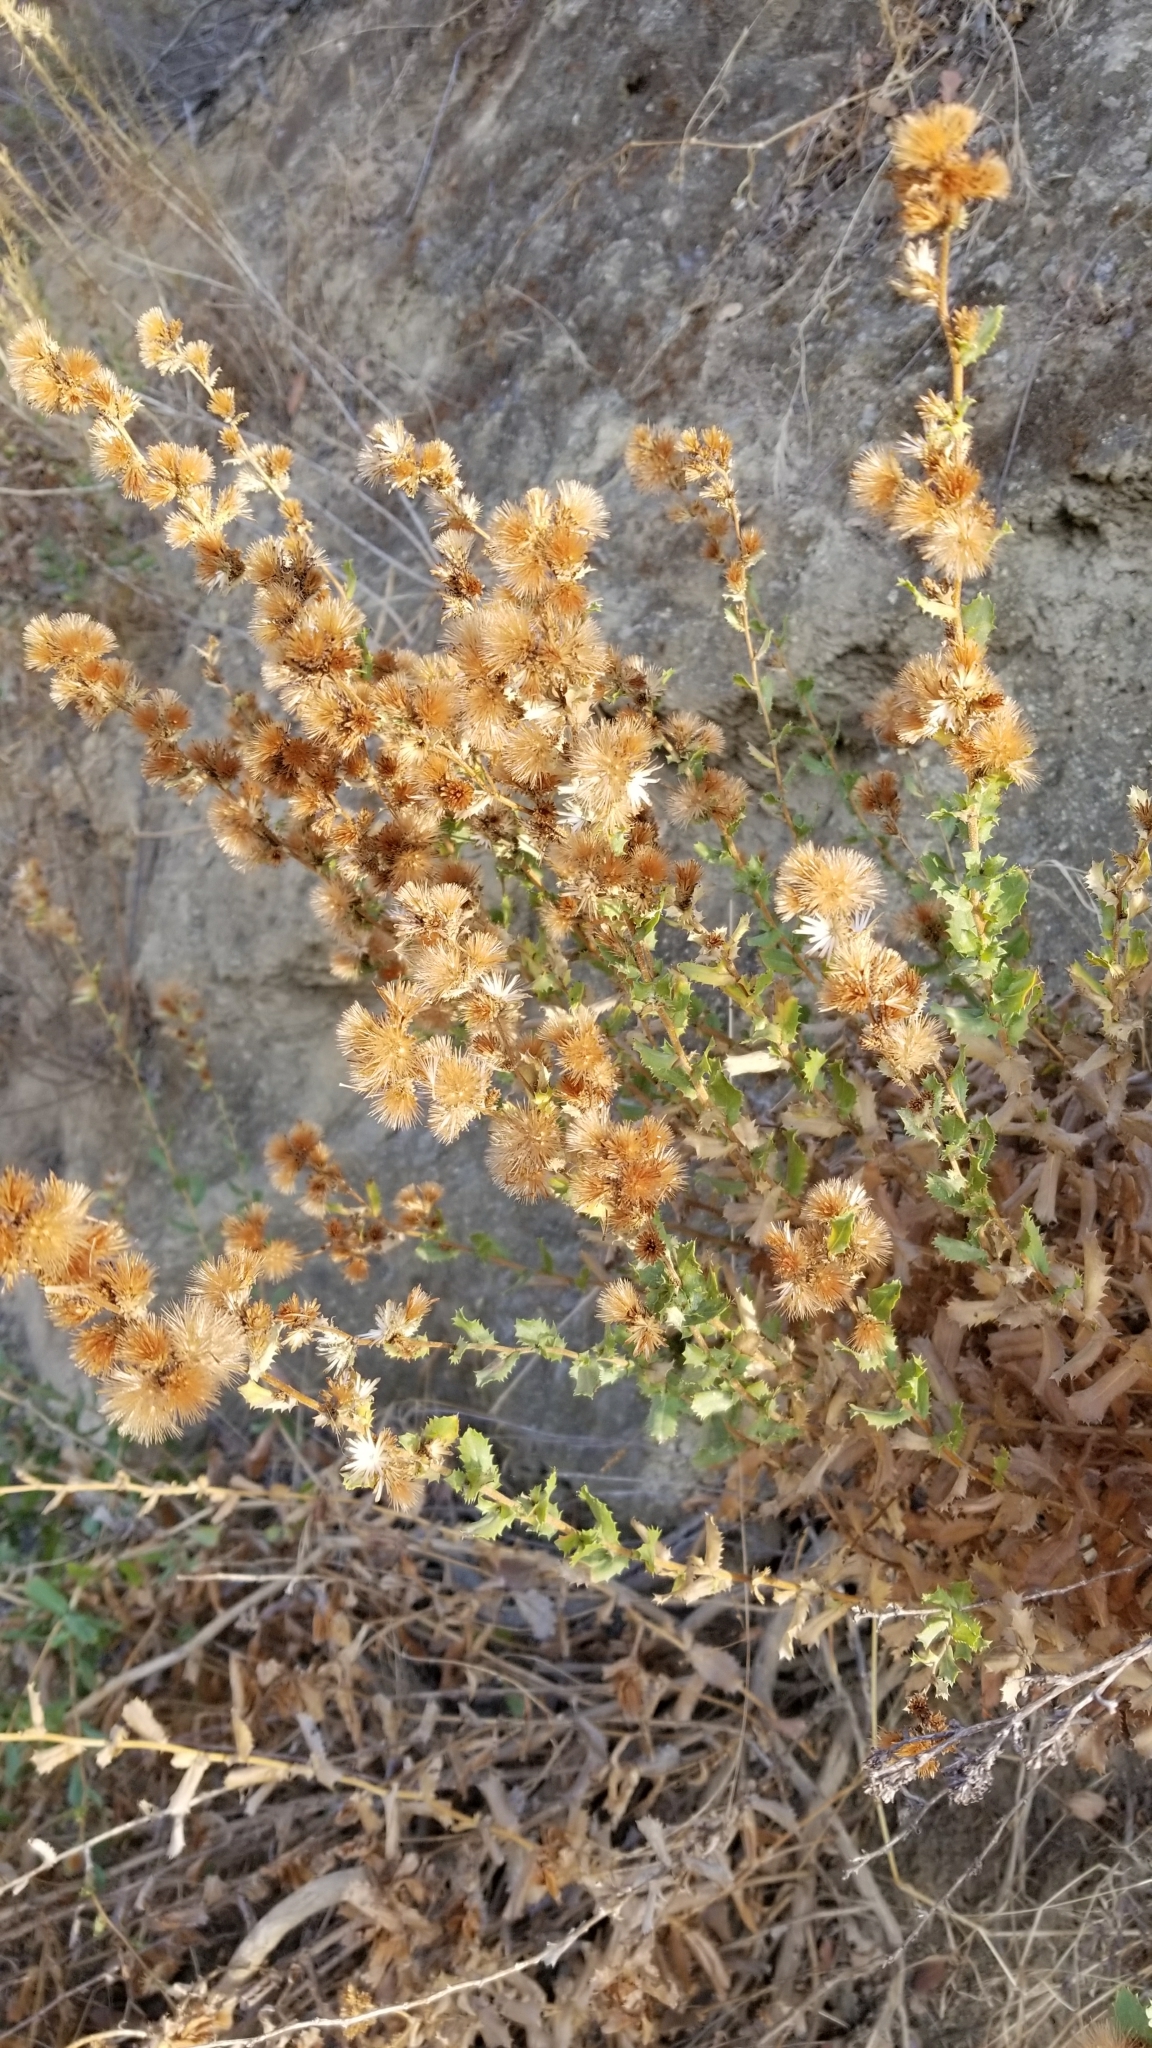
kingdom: Plantae
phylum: Tracheophyta
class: Magnoliopsida
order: Asterales
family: Asteraceae
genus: Hazardia
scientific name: Hazardia squarrosa
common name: Saw-tooth goldenbush
